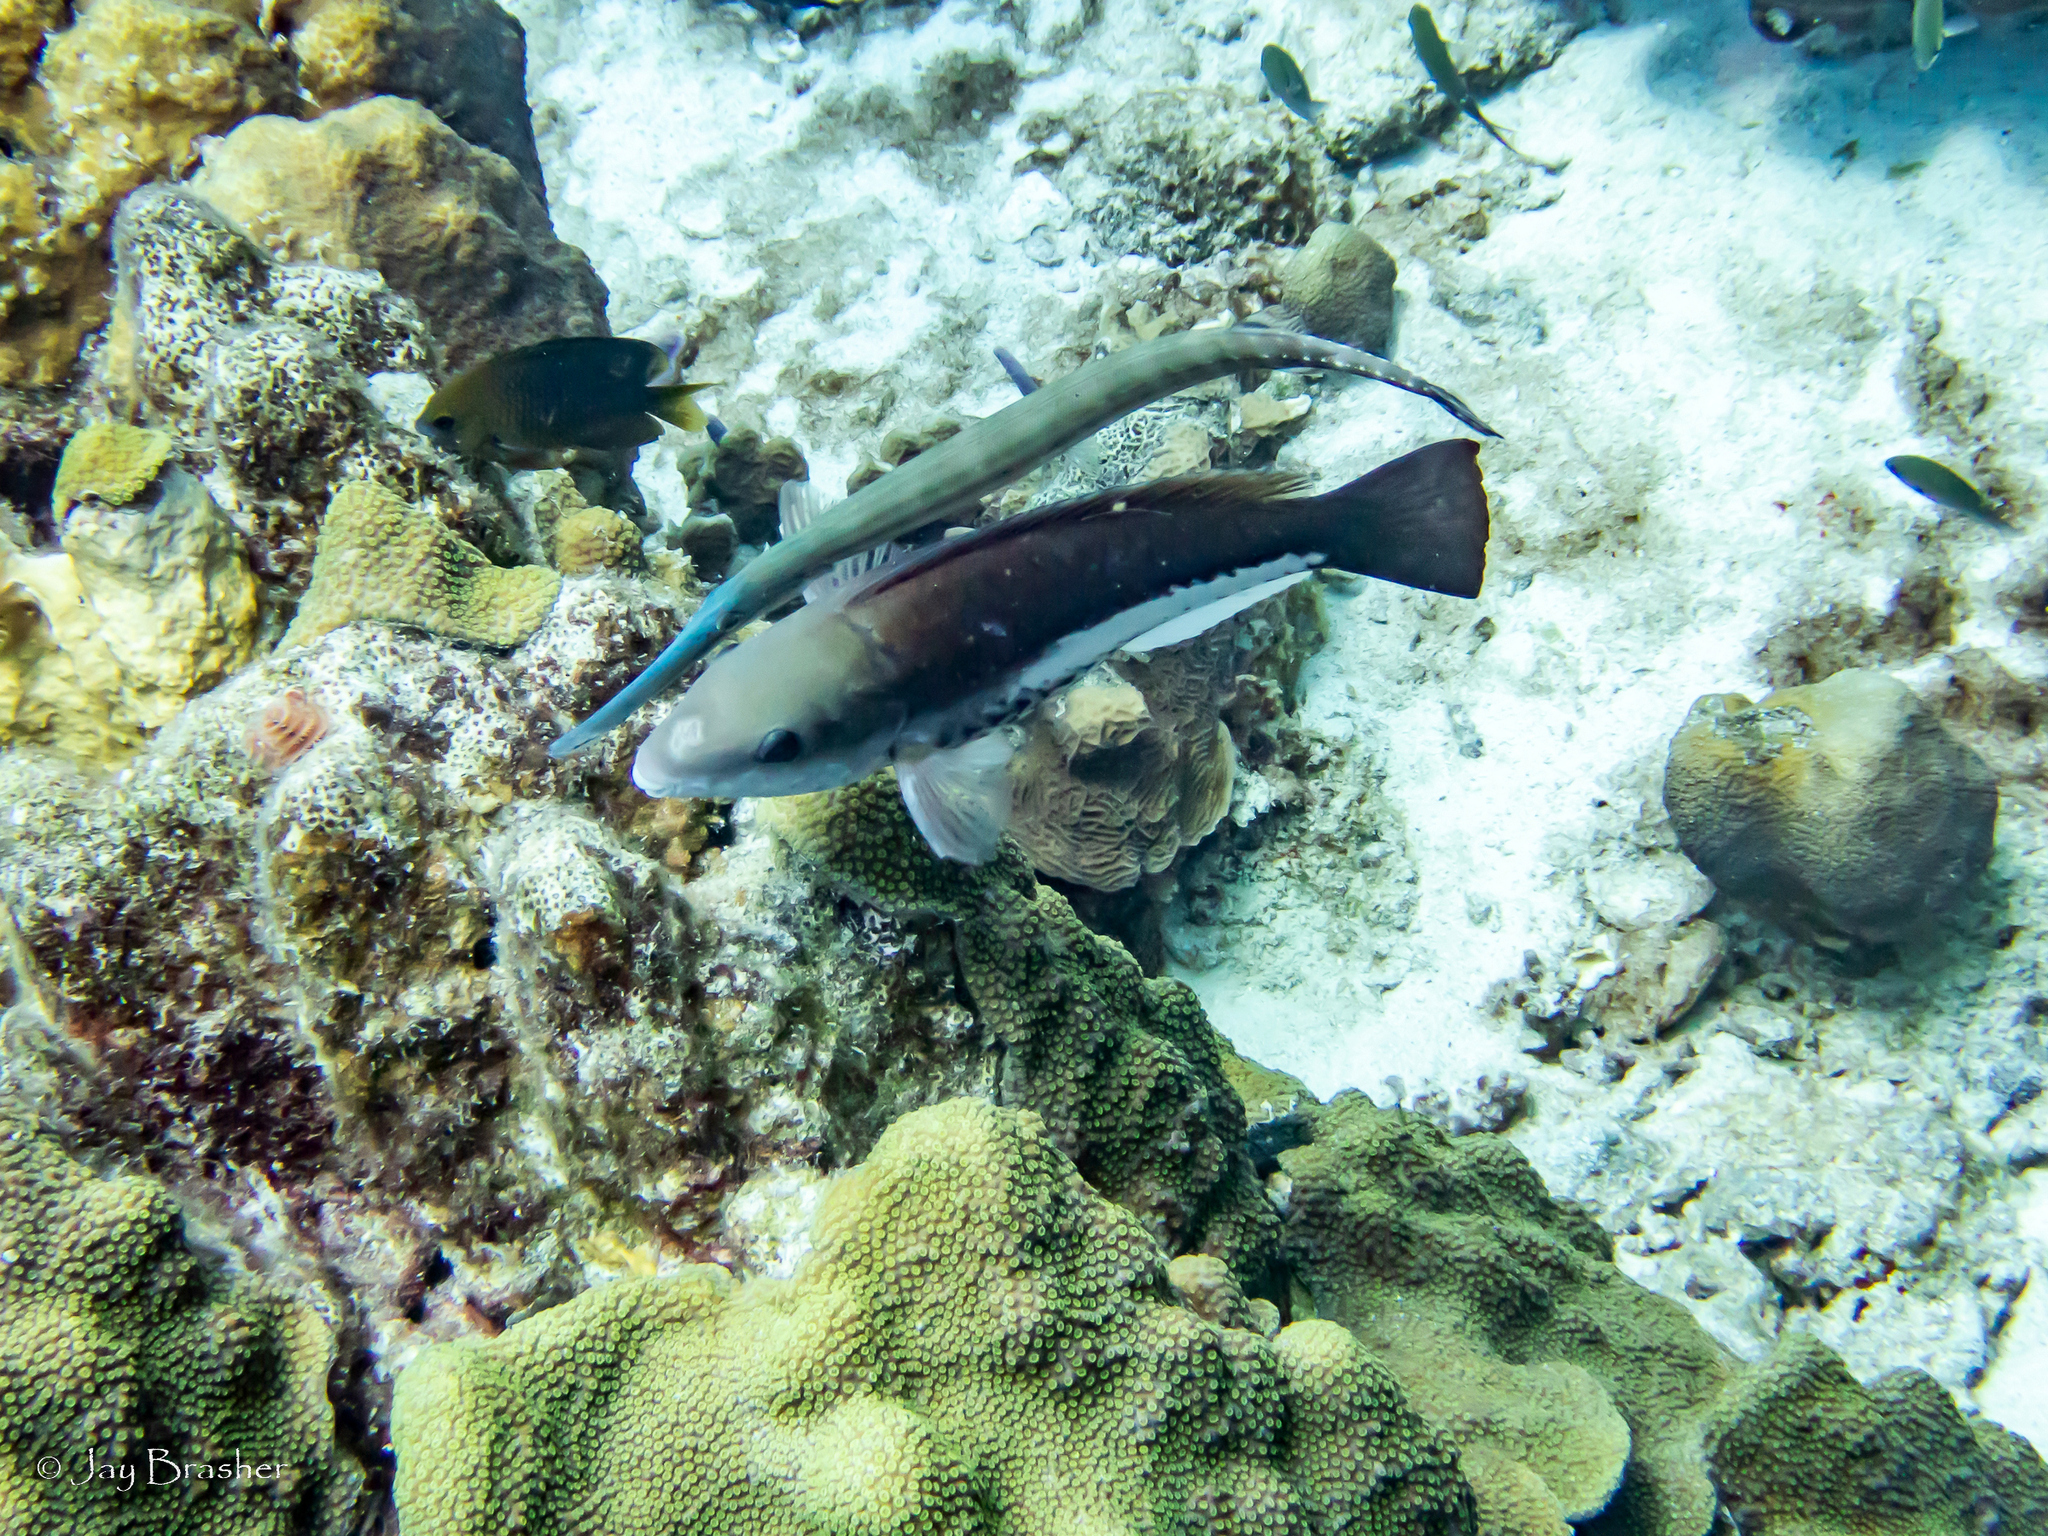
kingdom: Animalia
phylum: Chordata
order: Perciformes
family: Pomacentridae
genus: Stegastes
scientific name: Stegastes planifrons
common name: Threespot damselfish
